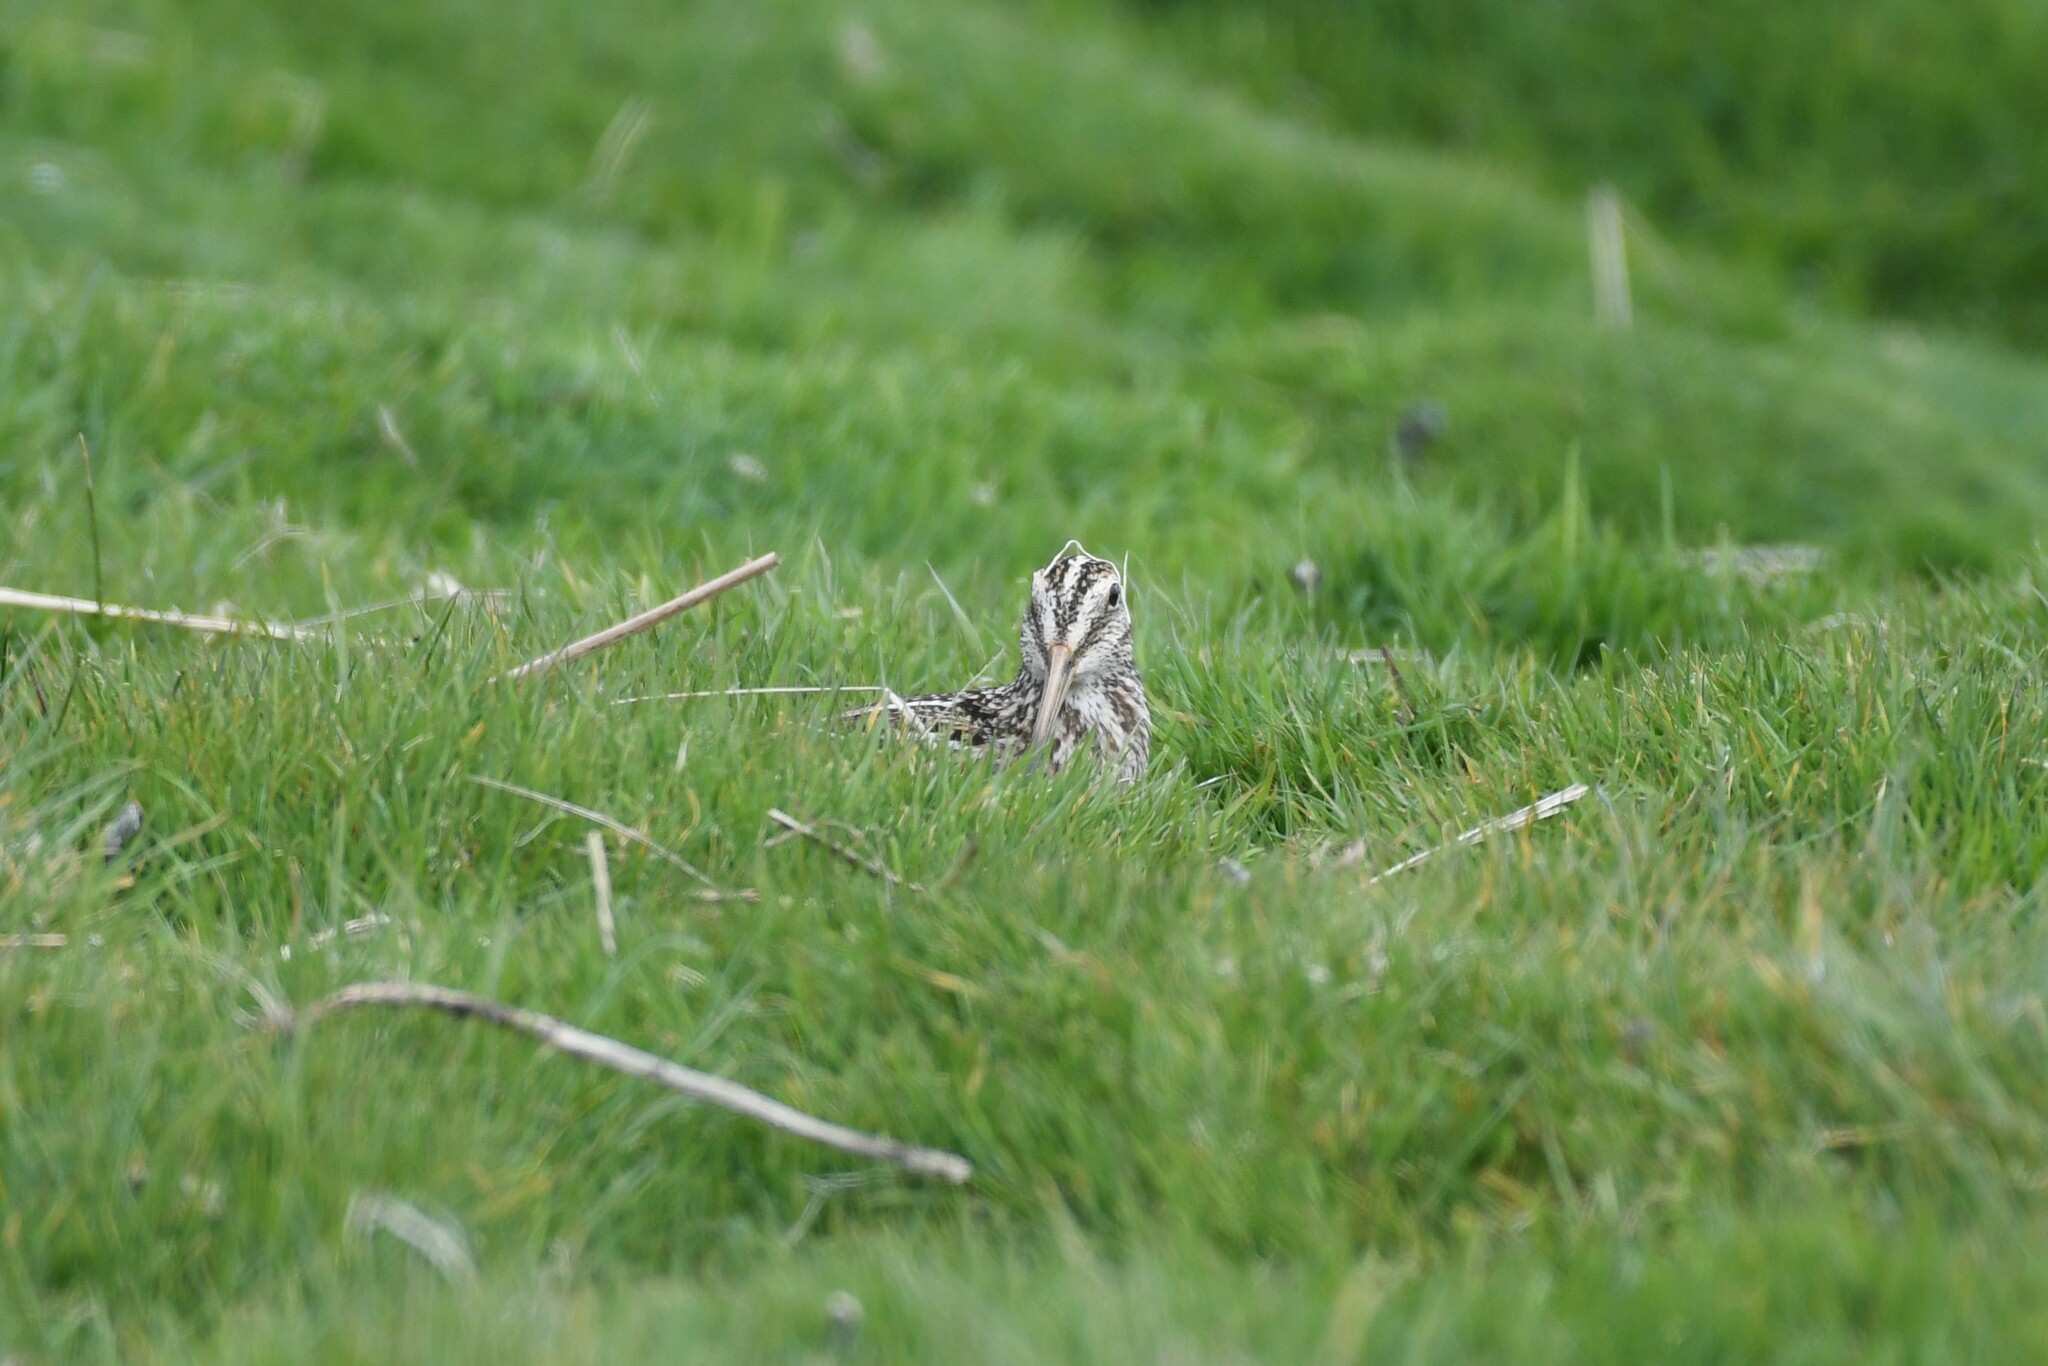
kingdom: Animalia
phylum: Chordata
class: Aves
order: Charadriiformes
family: Scolopacidae
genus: Gallinago
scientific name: Gallinago magellanica
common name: Magellanic snipe
